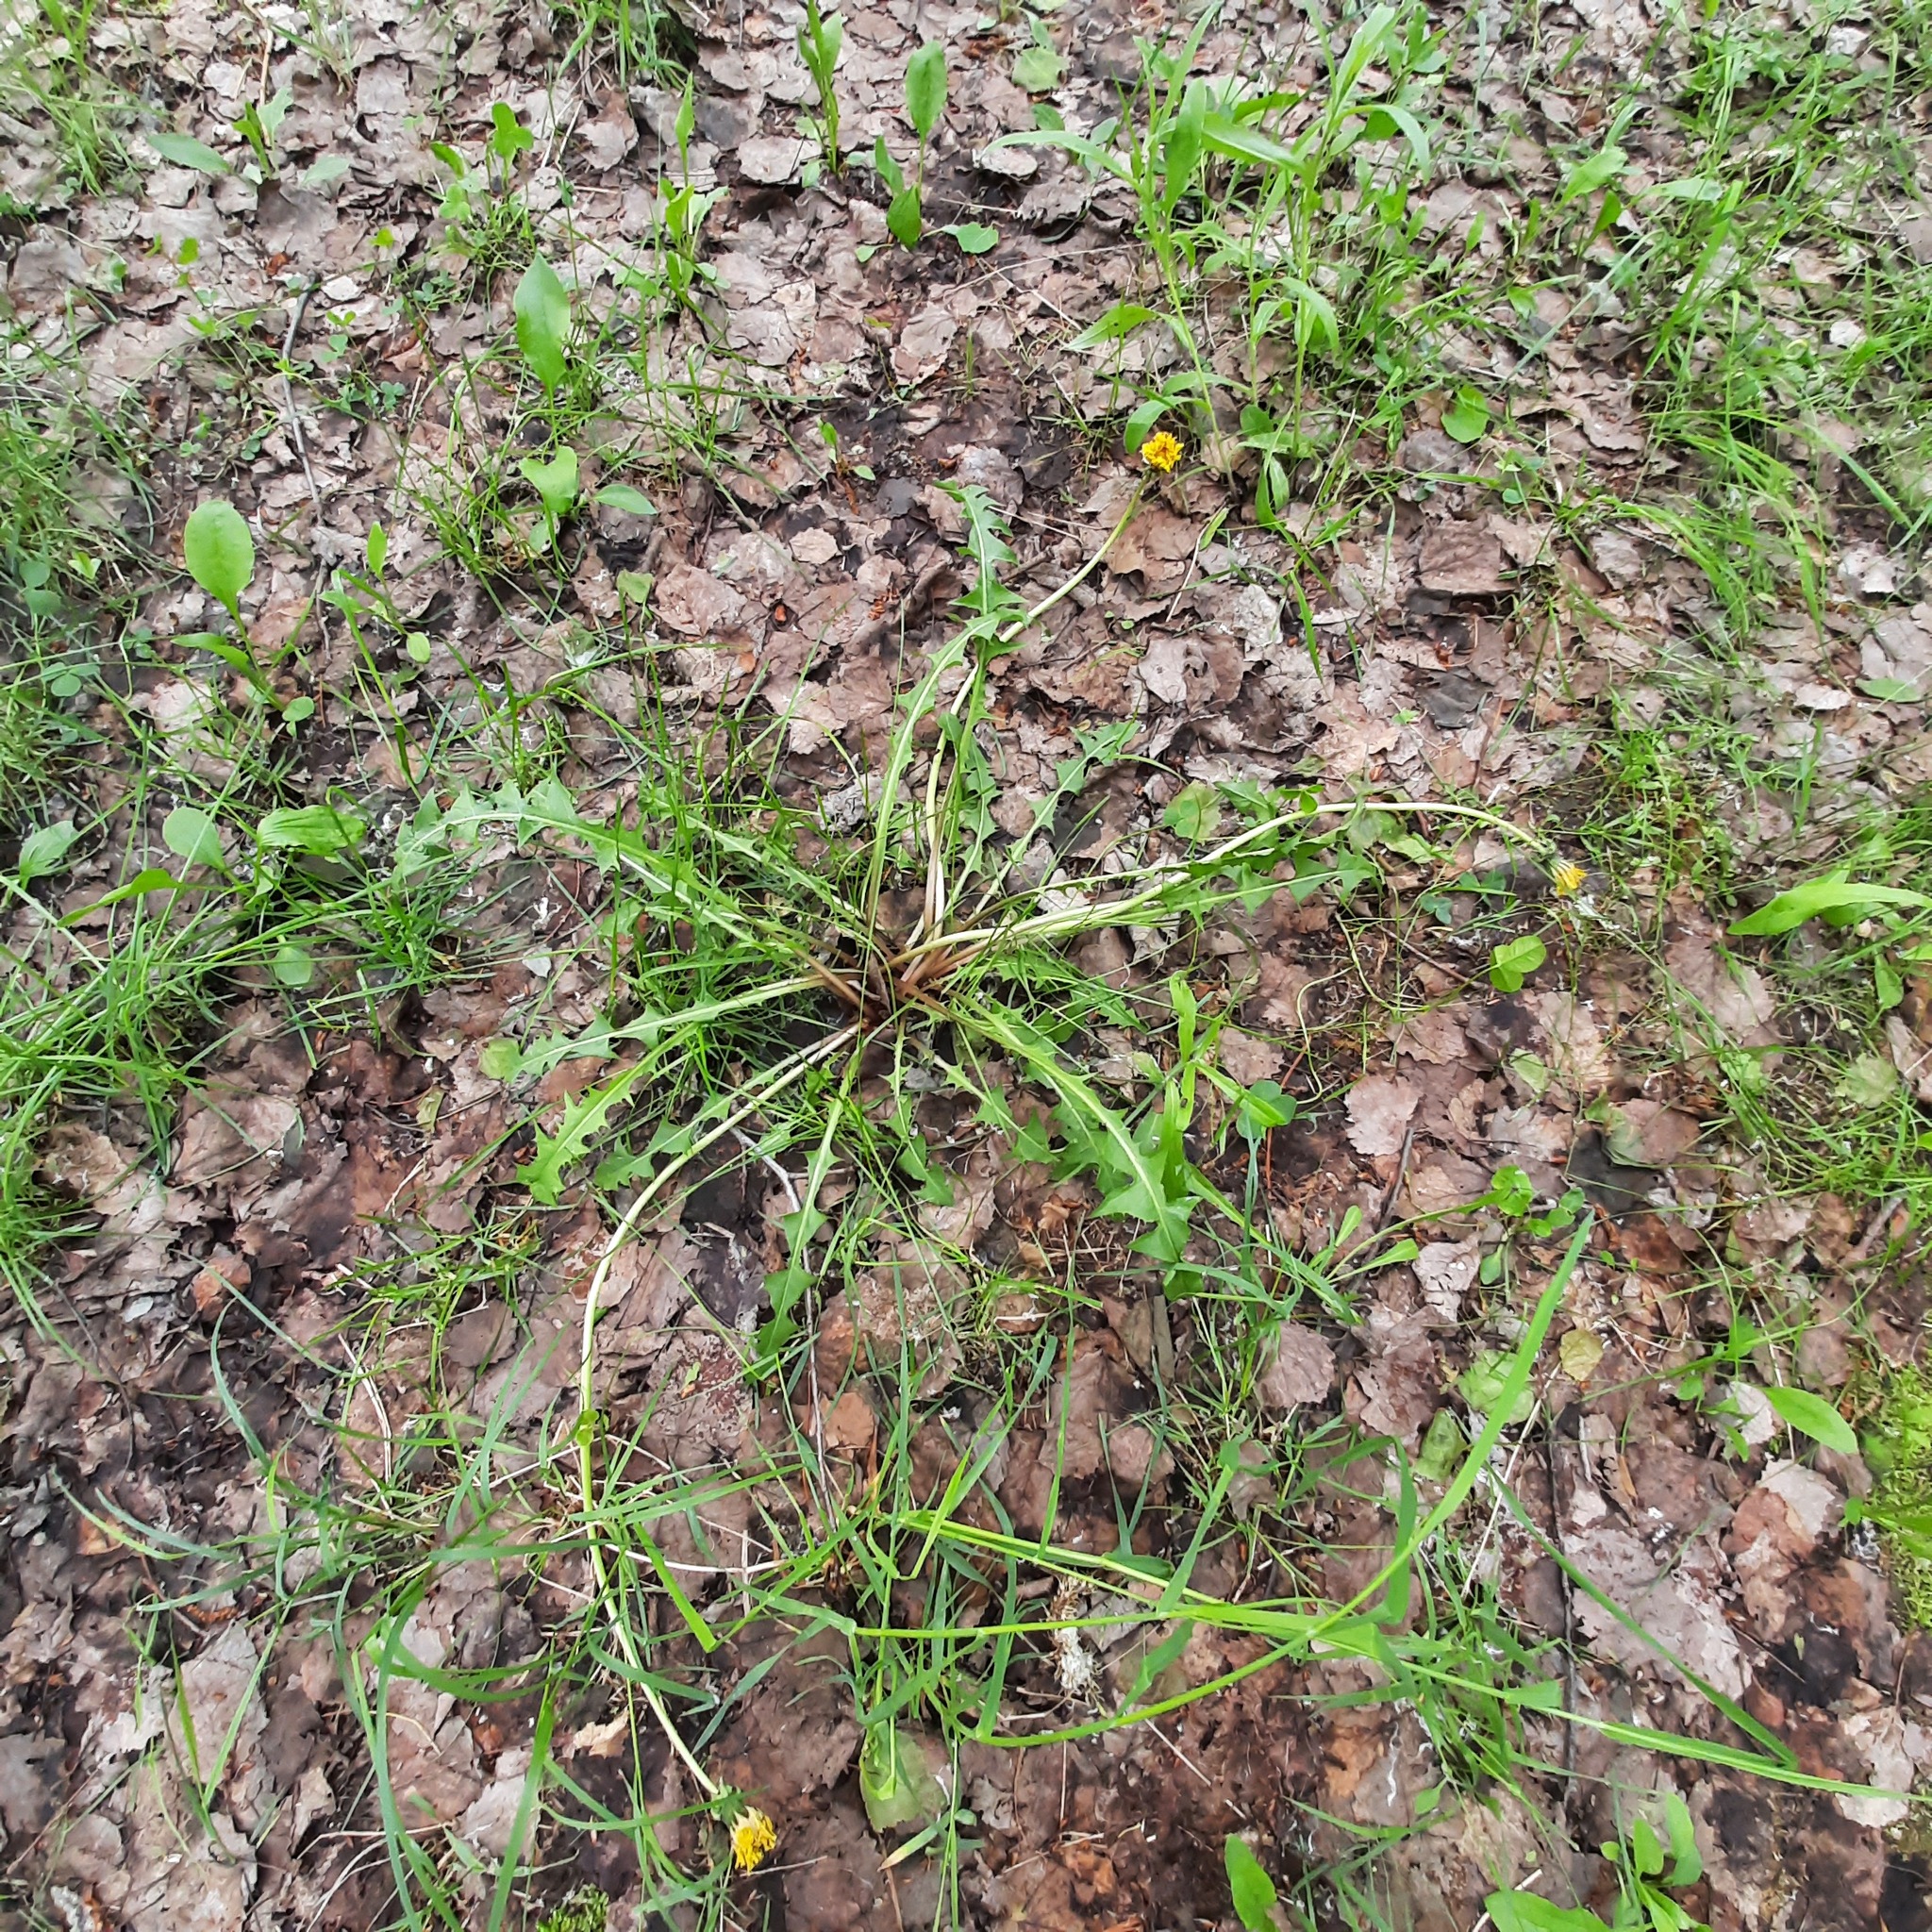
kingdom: Plantae
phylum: Tracheophyta
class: Magnoliopsida
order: Asterales
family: Asteraceae
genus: Taraxacum
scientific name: Taraxacum scariosum
